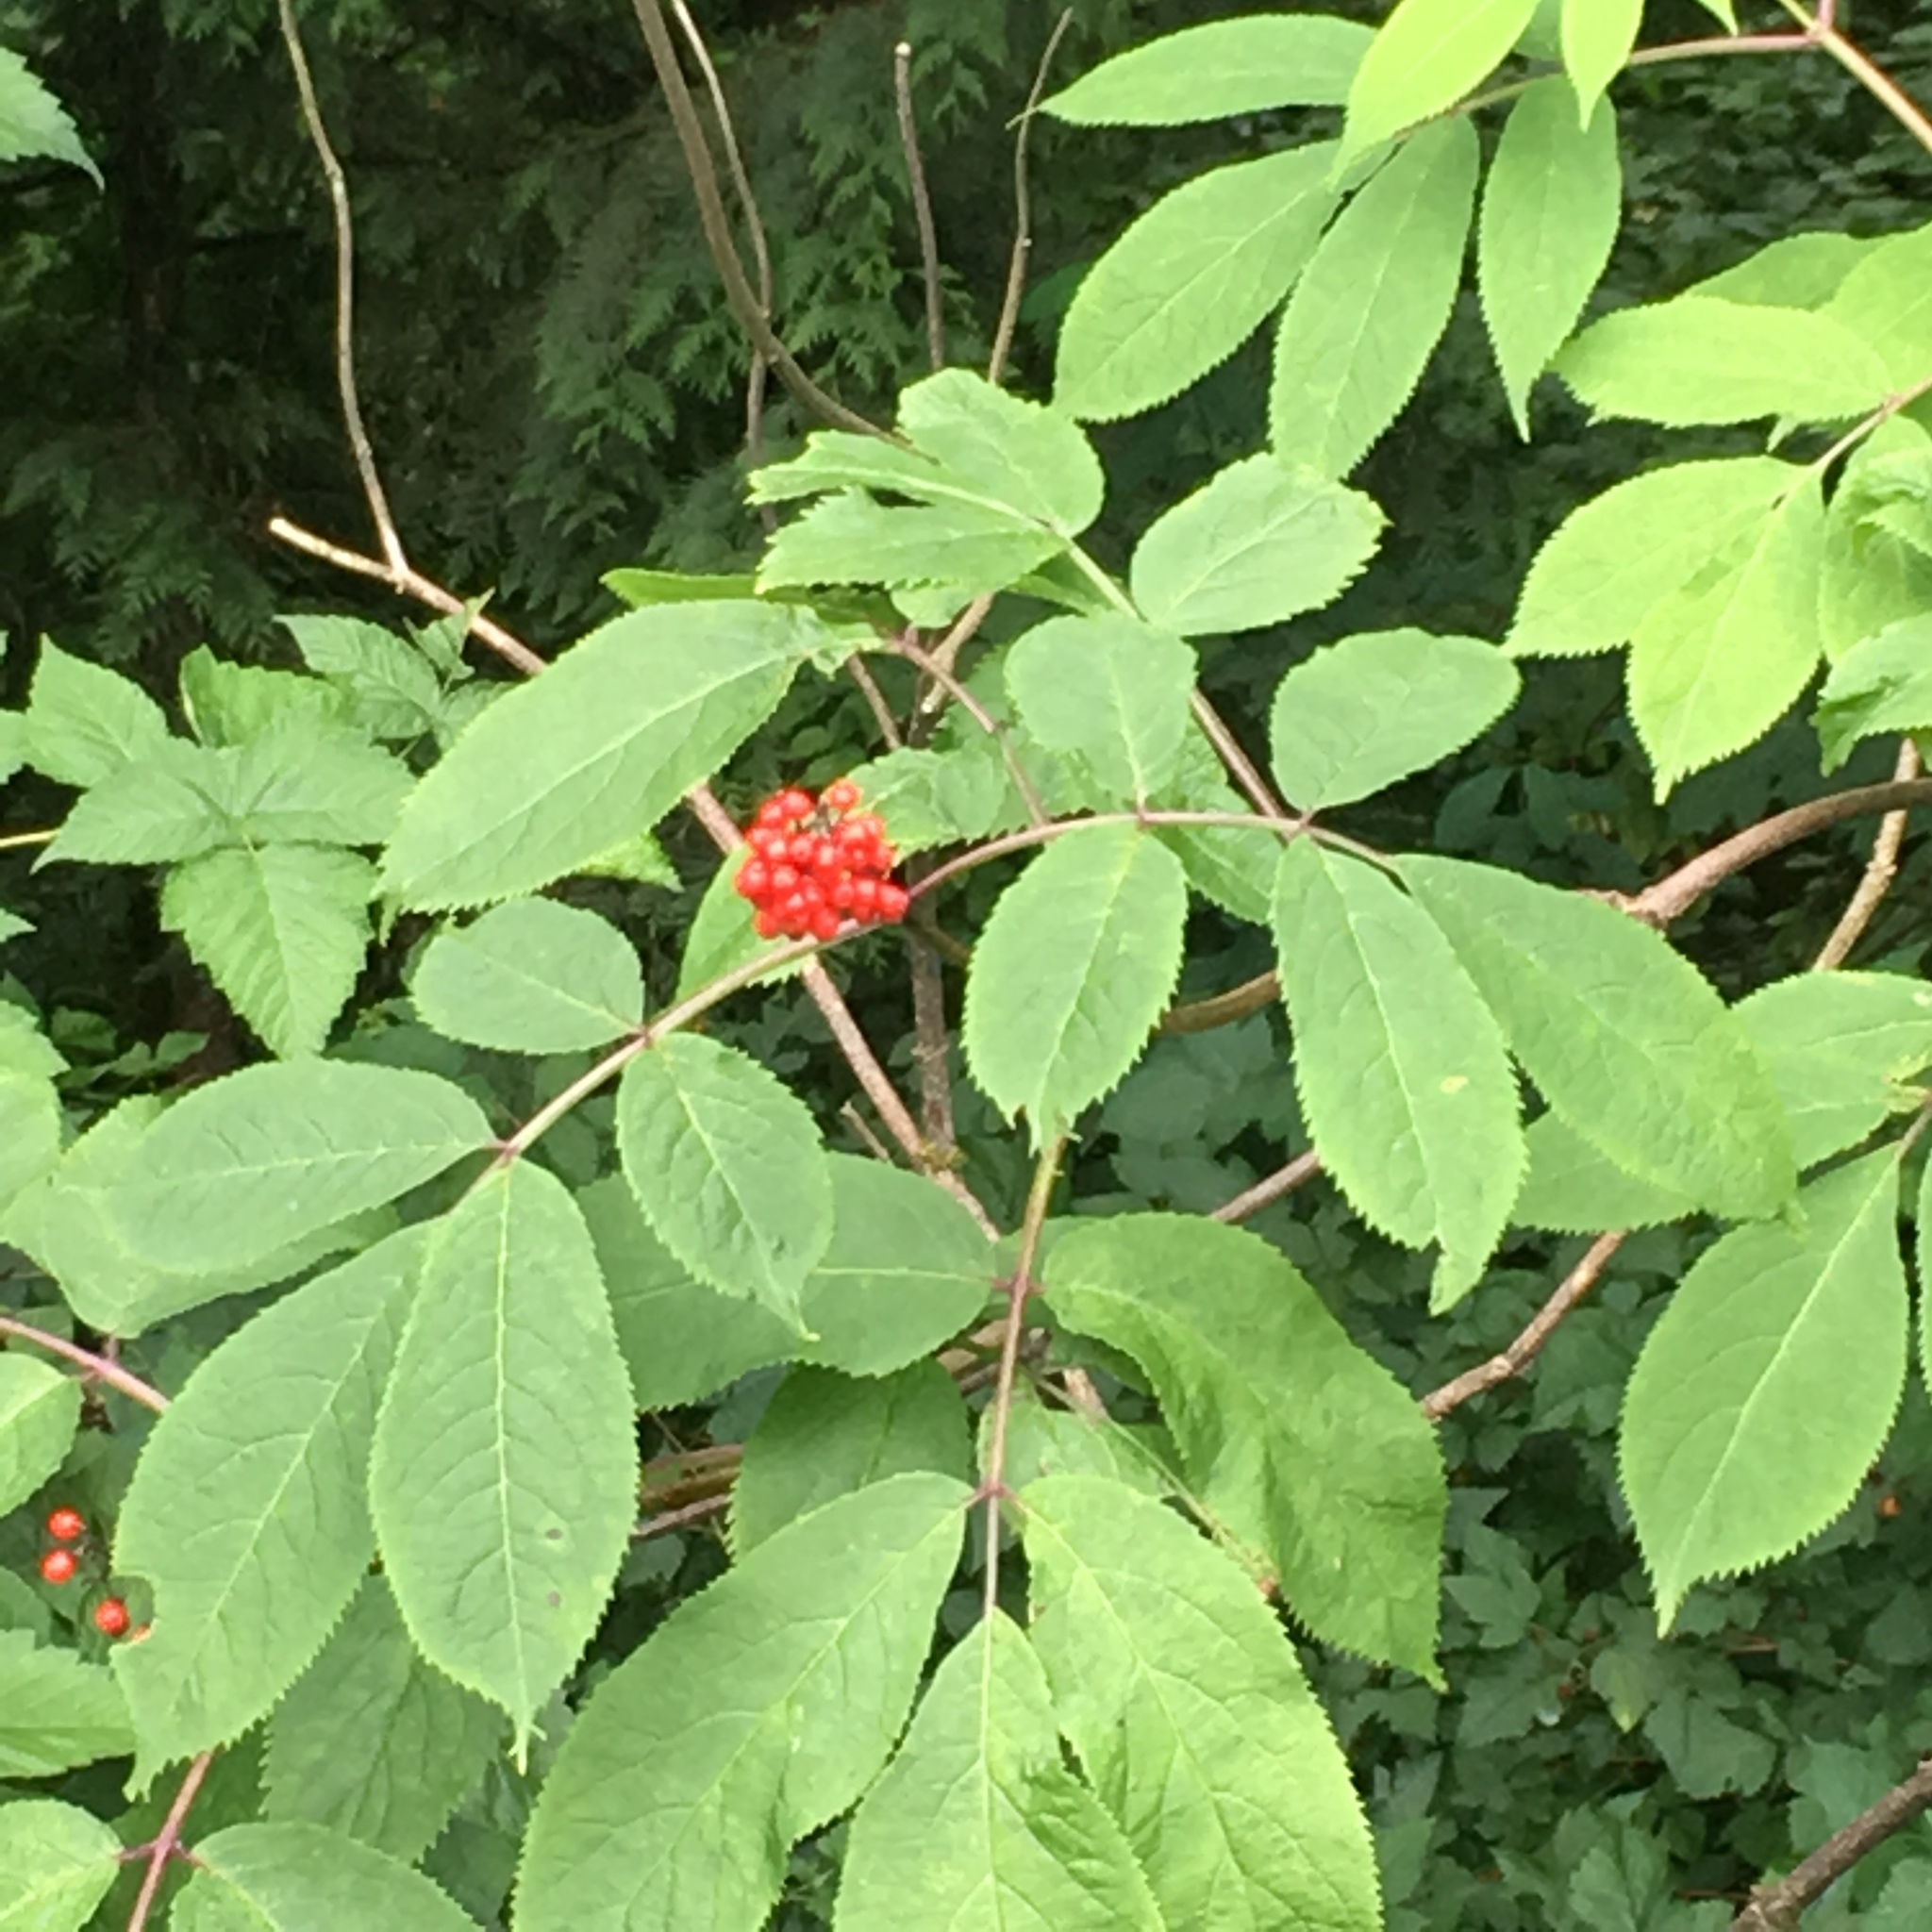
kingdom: Plantae
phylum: Tracheophyta
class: Magnoliopsida
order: Dipsacales
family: Viburnaceae
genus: Sambucus
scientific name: Sambucus racemosa
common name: Red-berried elder
